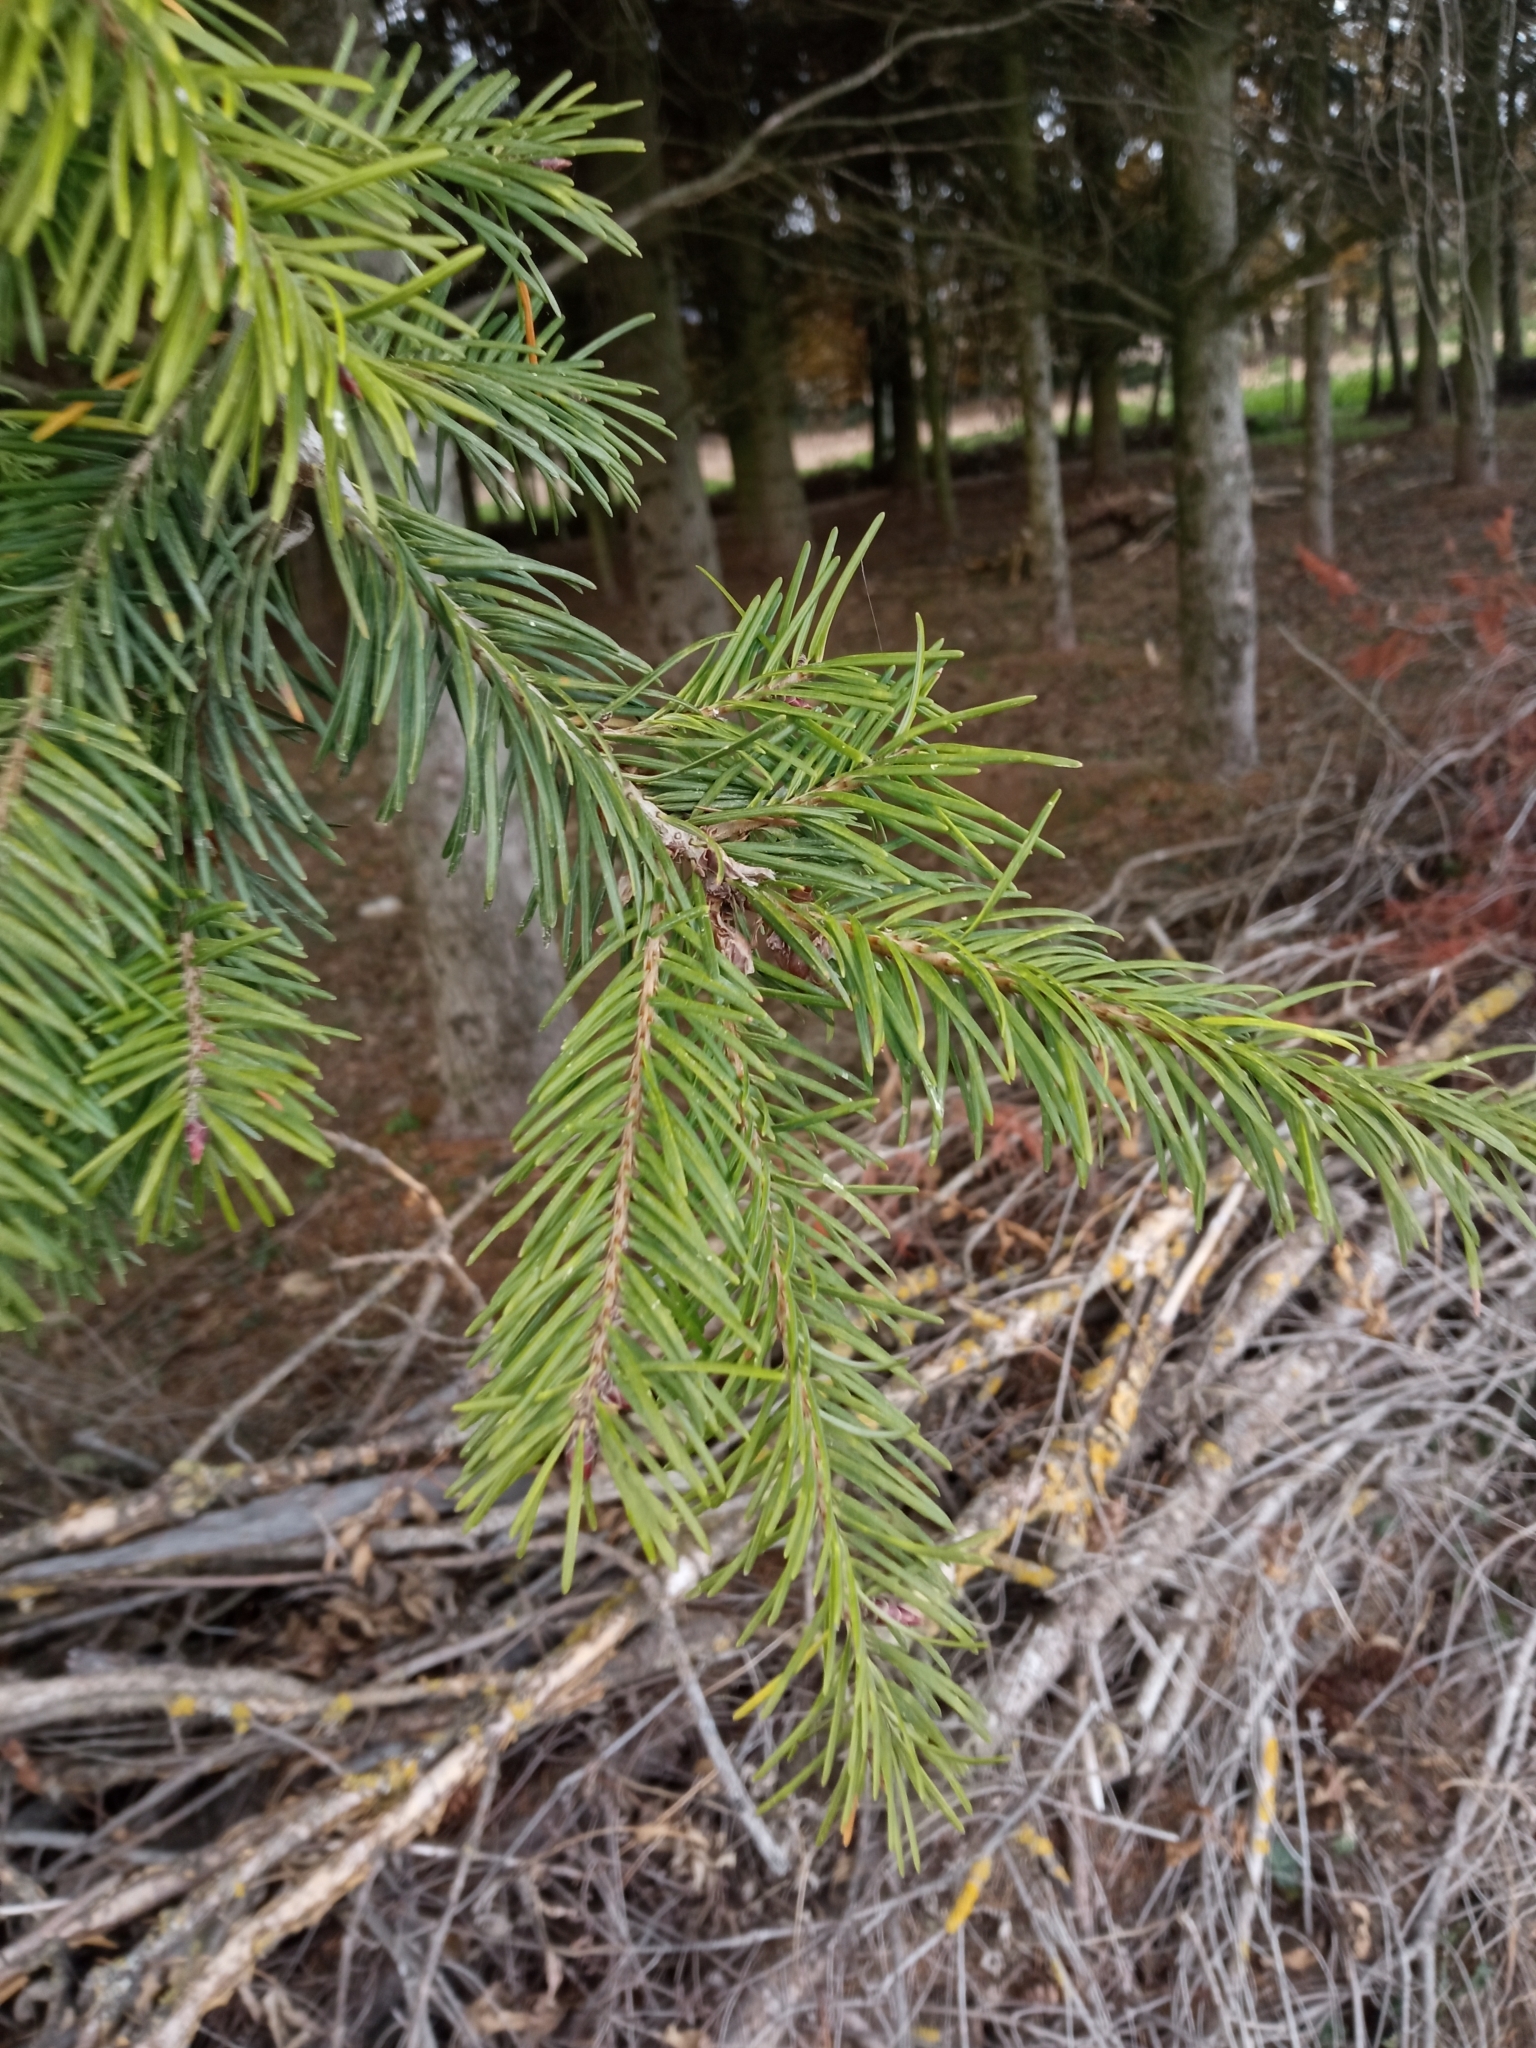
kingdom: Plantae
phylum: Tracheophyta
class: Pinopsida
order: Pinales
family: Pinaceae
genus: Pseudotsuga
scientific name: Pseudotsuga menziesii
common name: Douglas fir
